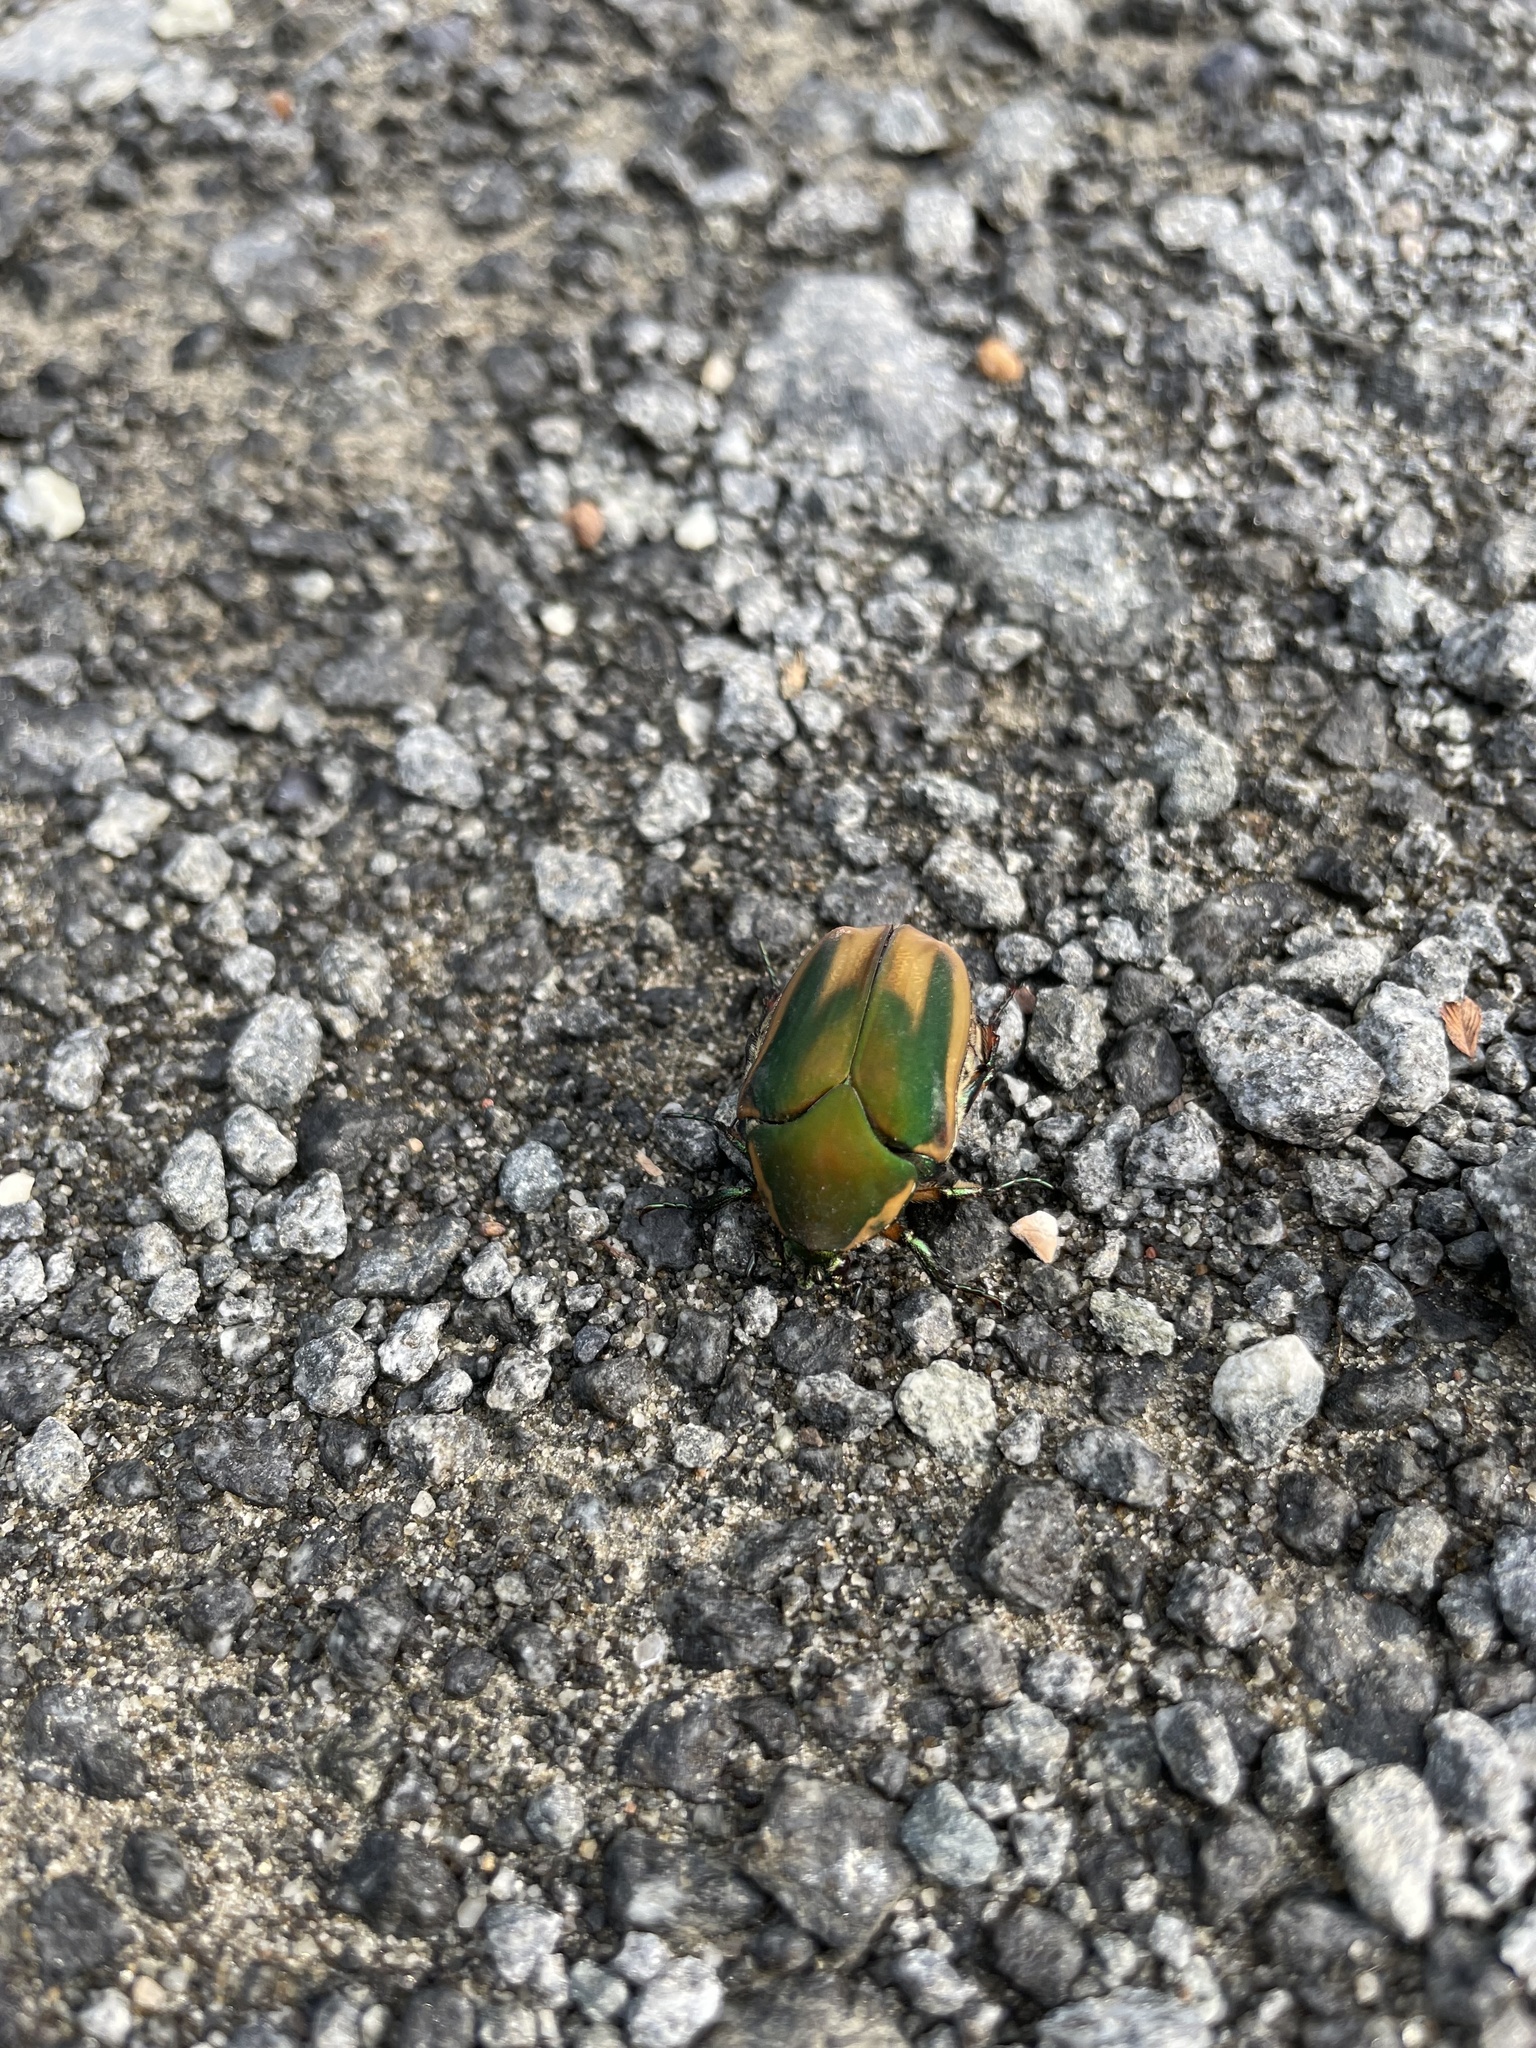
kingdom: Animalia
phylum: Arthropoda
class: Insecta
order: Coleoptera
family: Scarabaeidae
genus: Cotinis
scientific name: Cotinis nitida
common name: Common green june beetle
